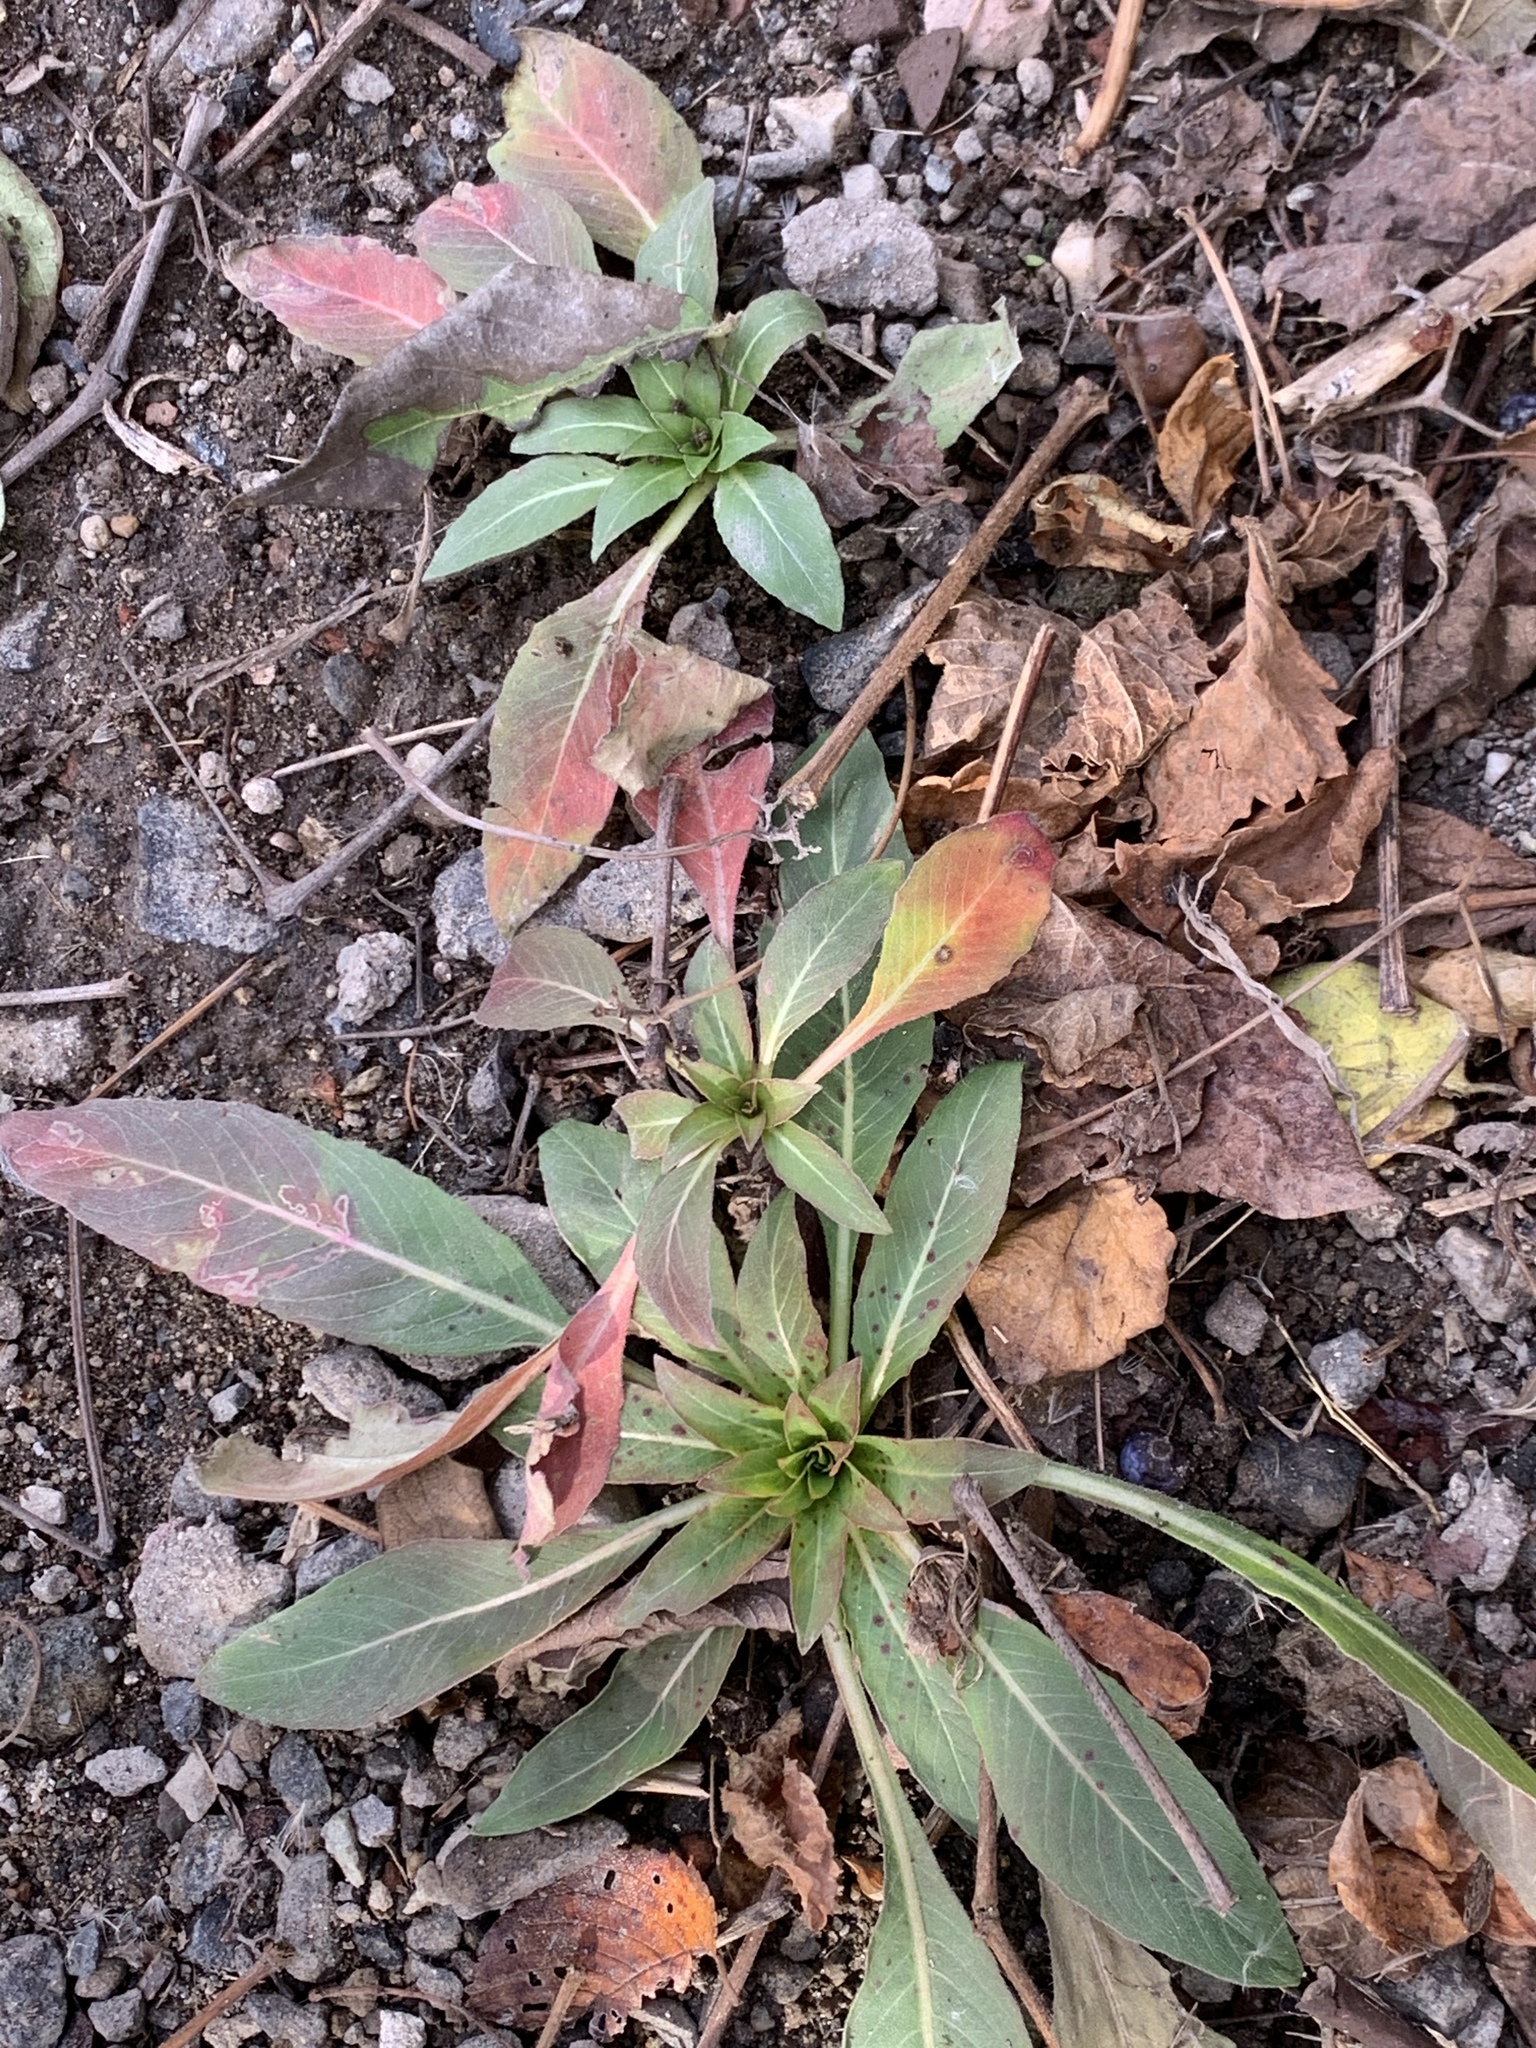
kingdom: Plantae
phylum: Tracheophyta
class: Magnoliopsida
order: Myrtales
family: Onagraceae
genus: Oenothera
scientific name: Oenothera biennis
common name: Common evening-primrose
